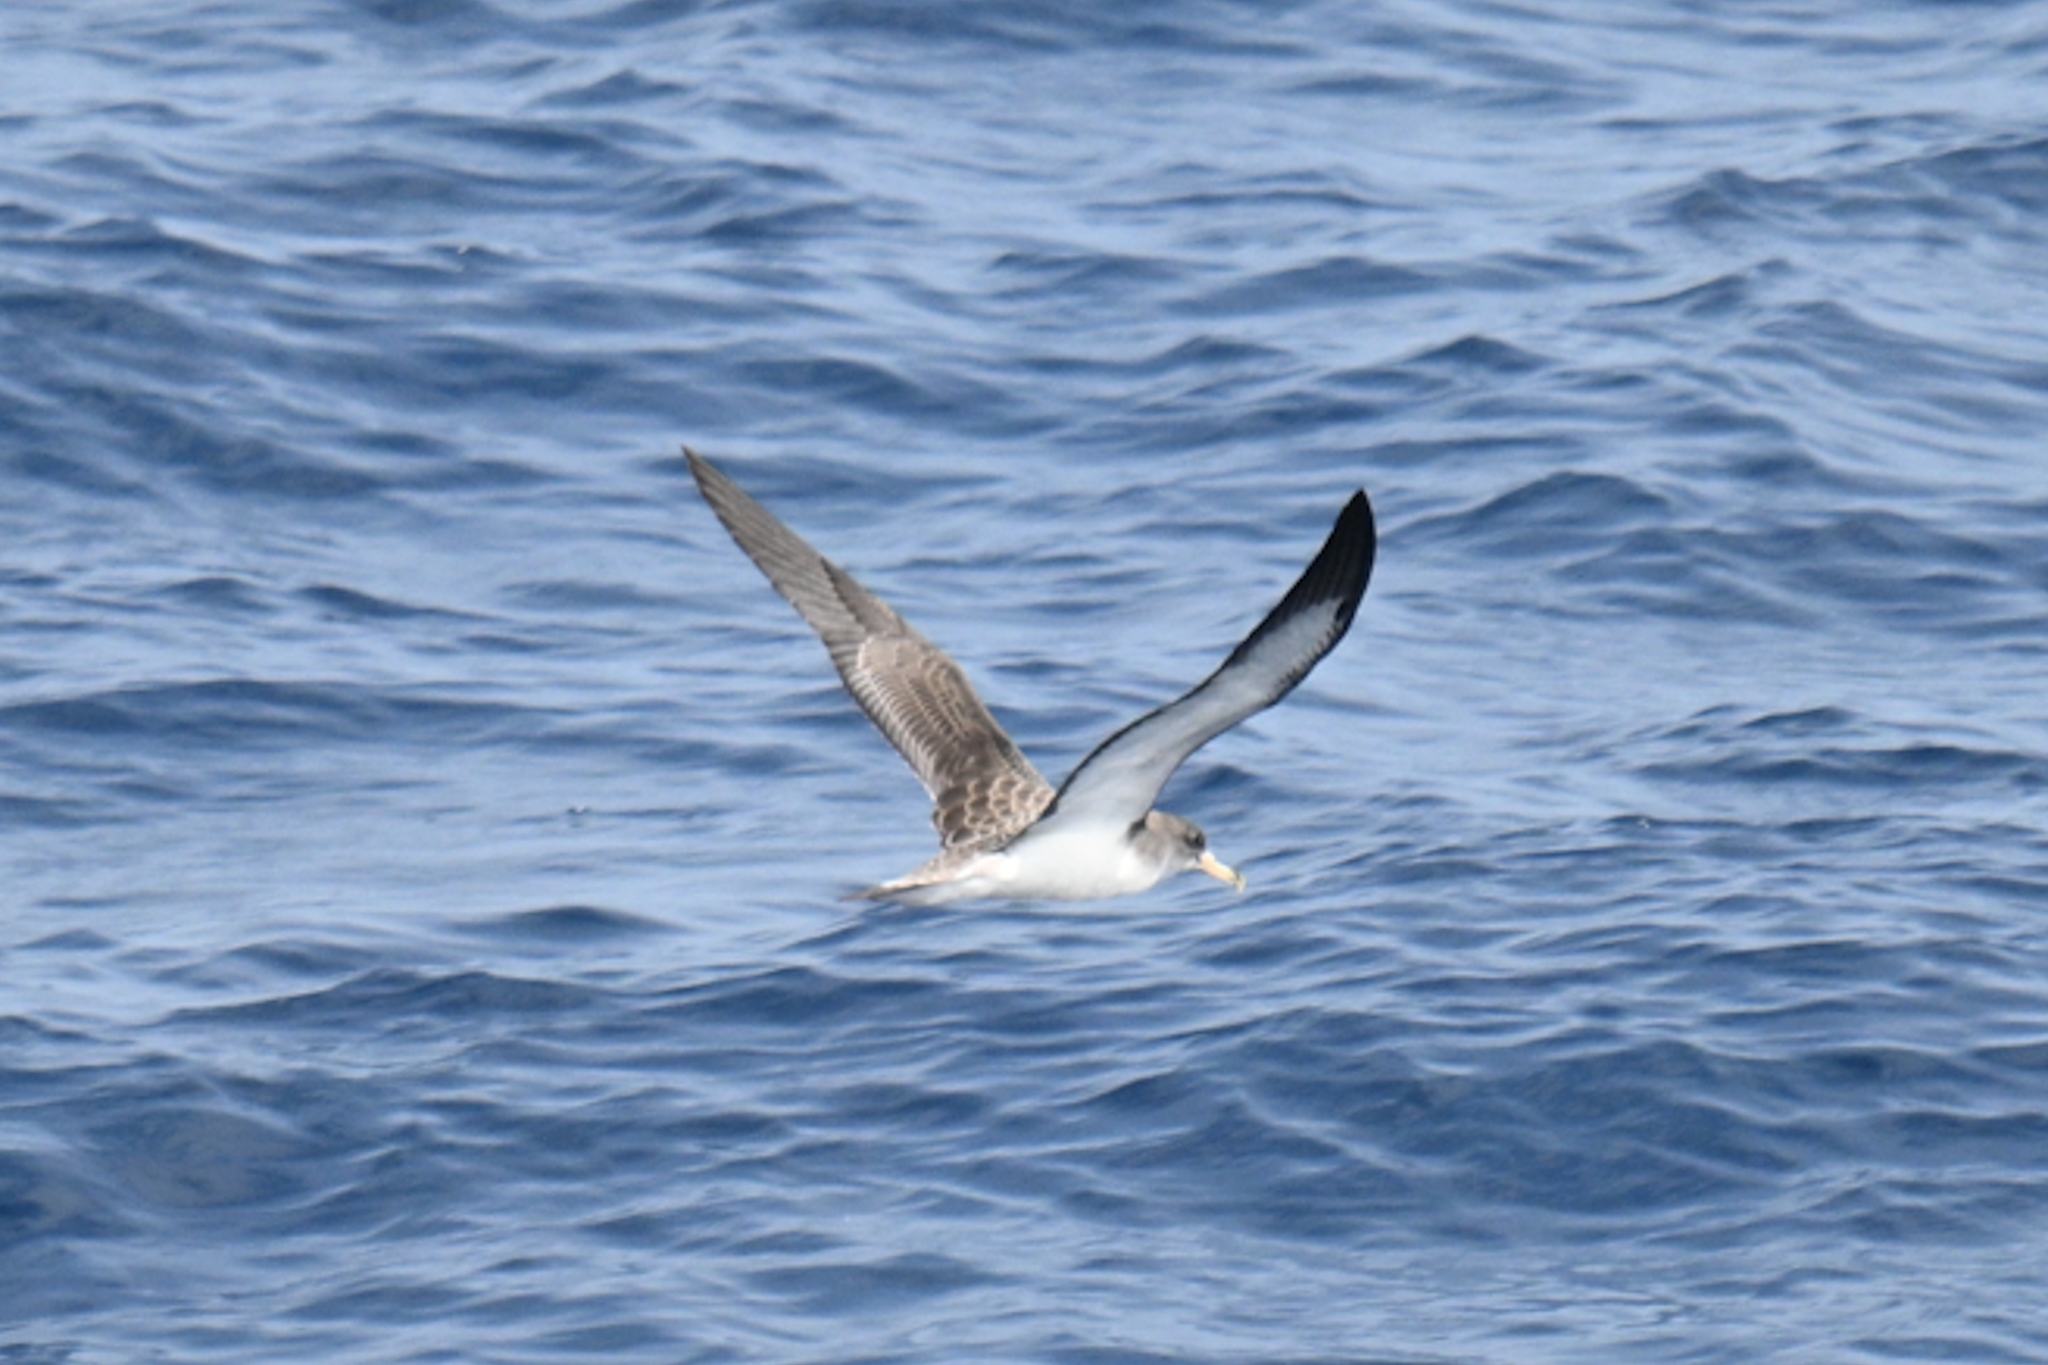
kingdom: Animalia
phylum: Chordata
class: Aves
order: Procellariiformes
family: Procellariidae
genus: Calonectris
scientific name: Calonectris diomedea
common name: Cory's shearwater
